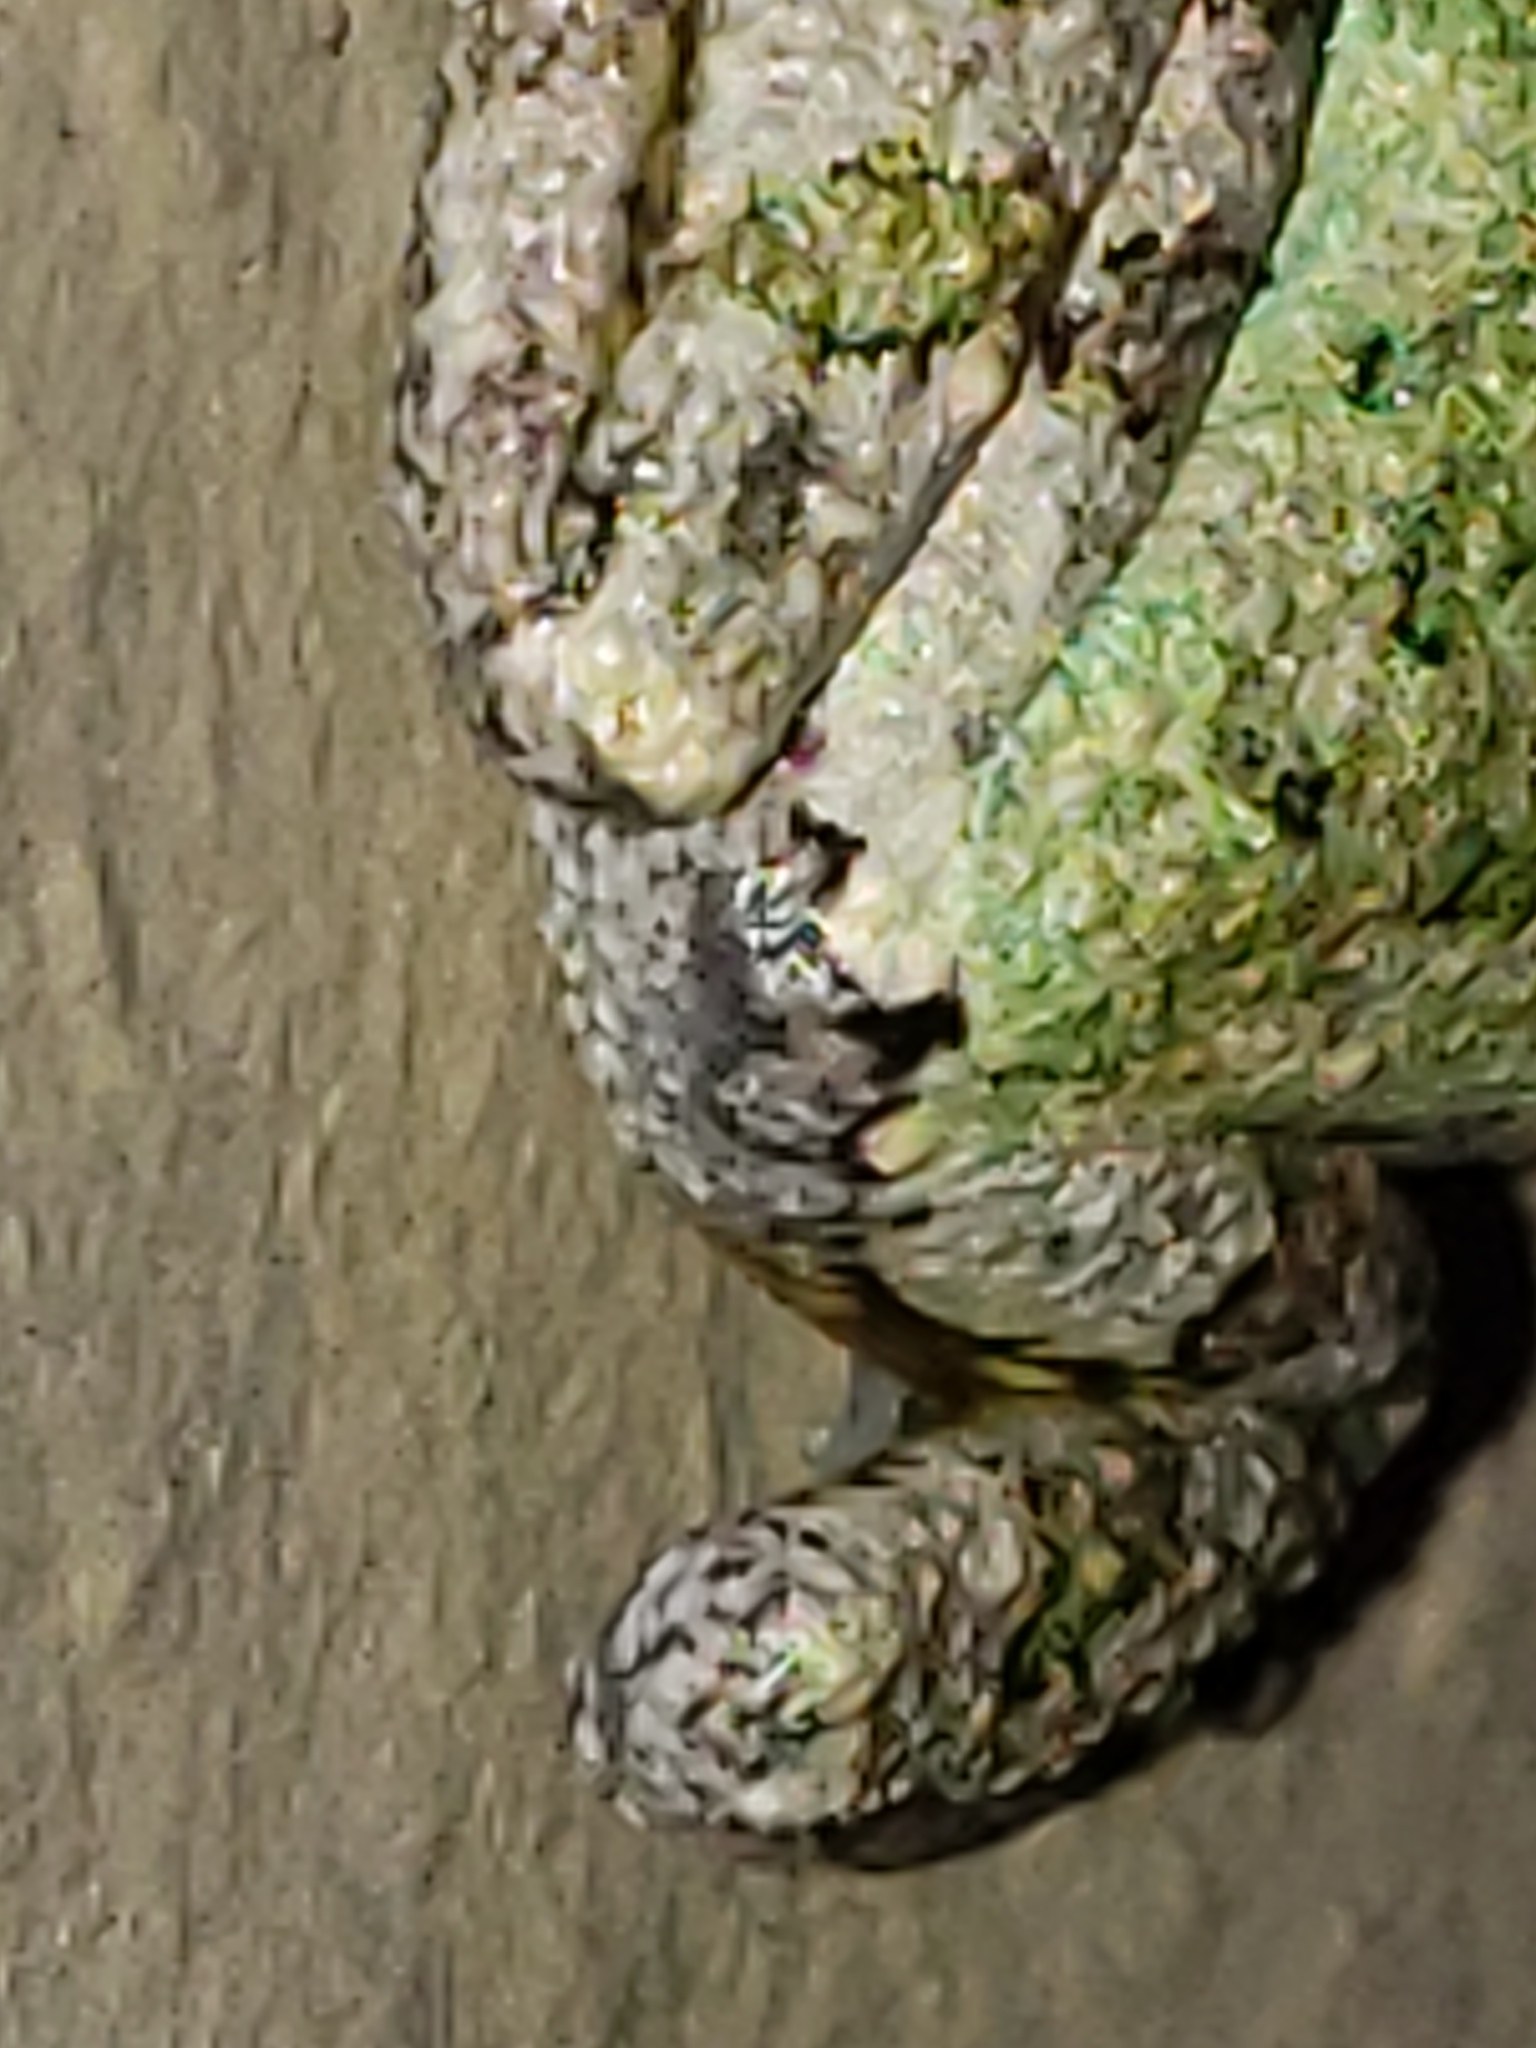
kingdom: Animalia
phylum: Chordata
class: Amphibia
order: Anura
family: Hylidae
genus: Hyla
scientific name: Hyla
